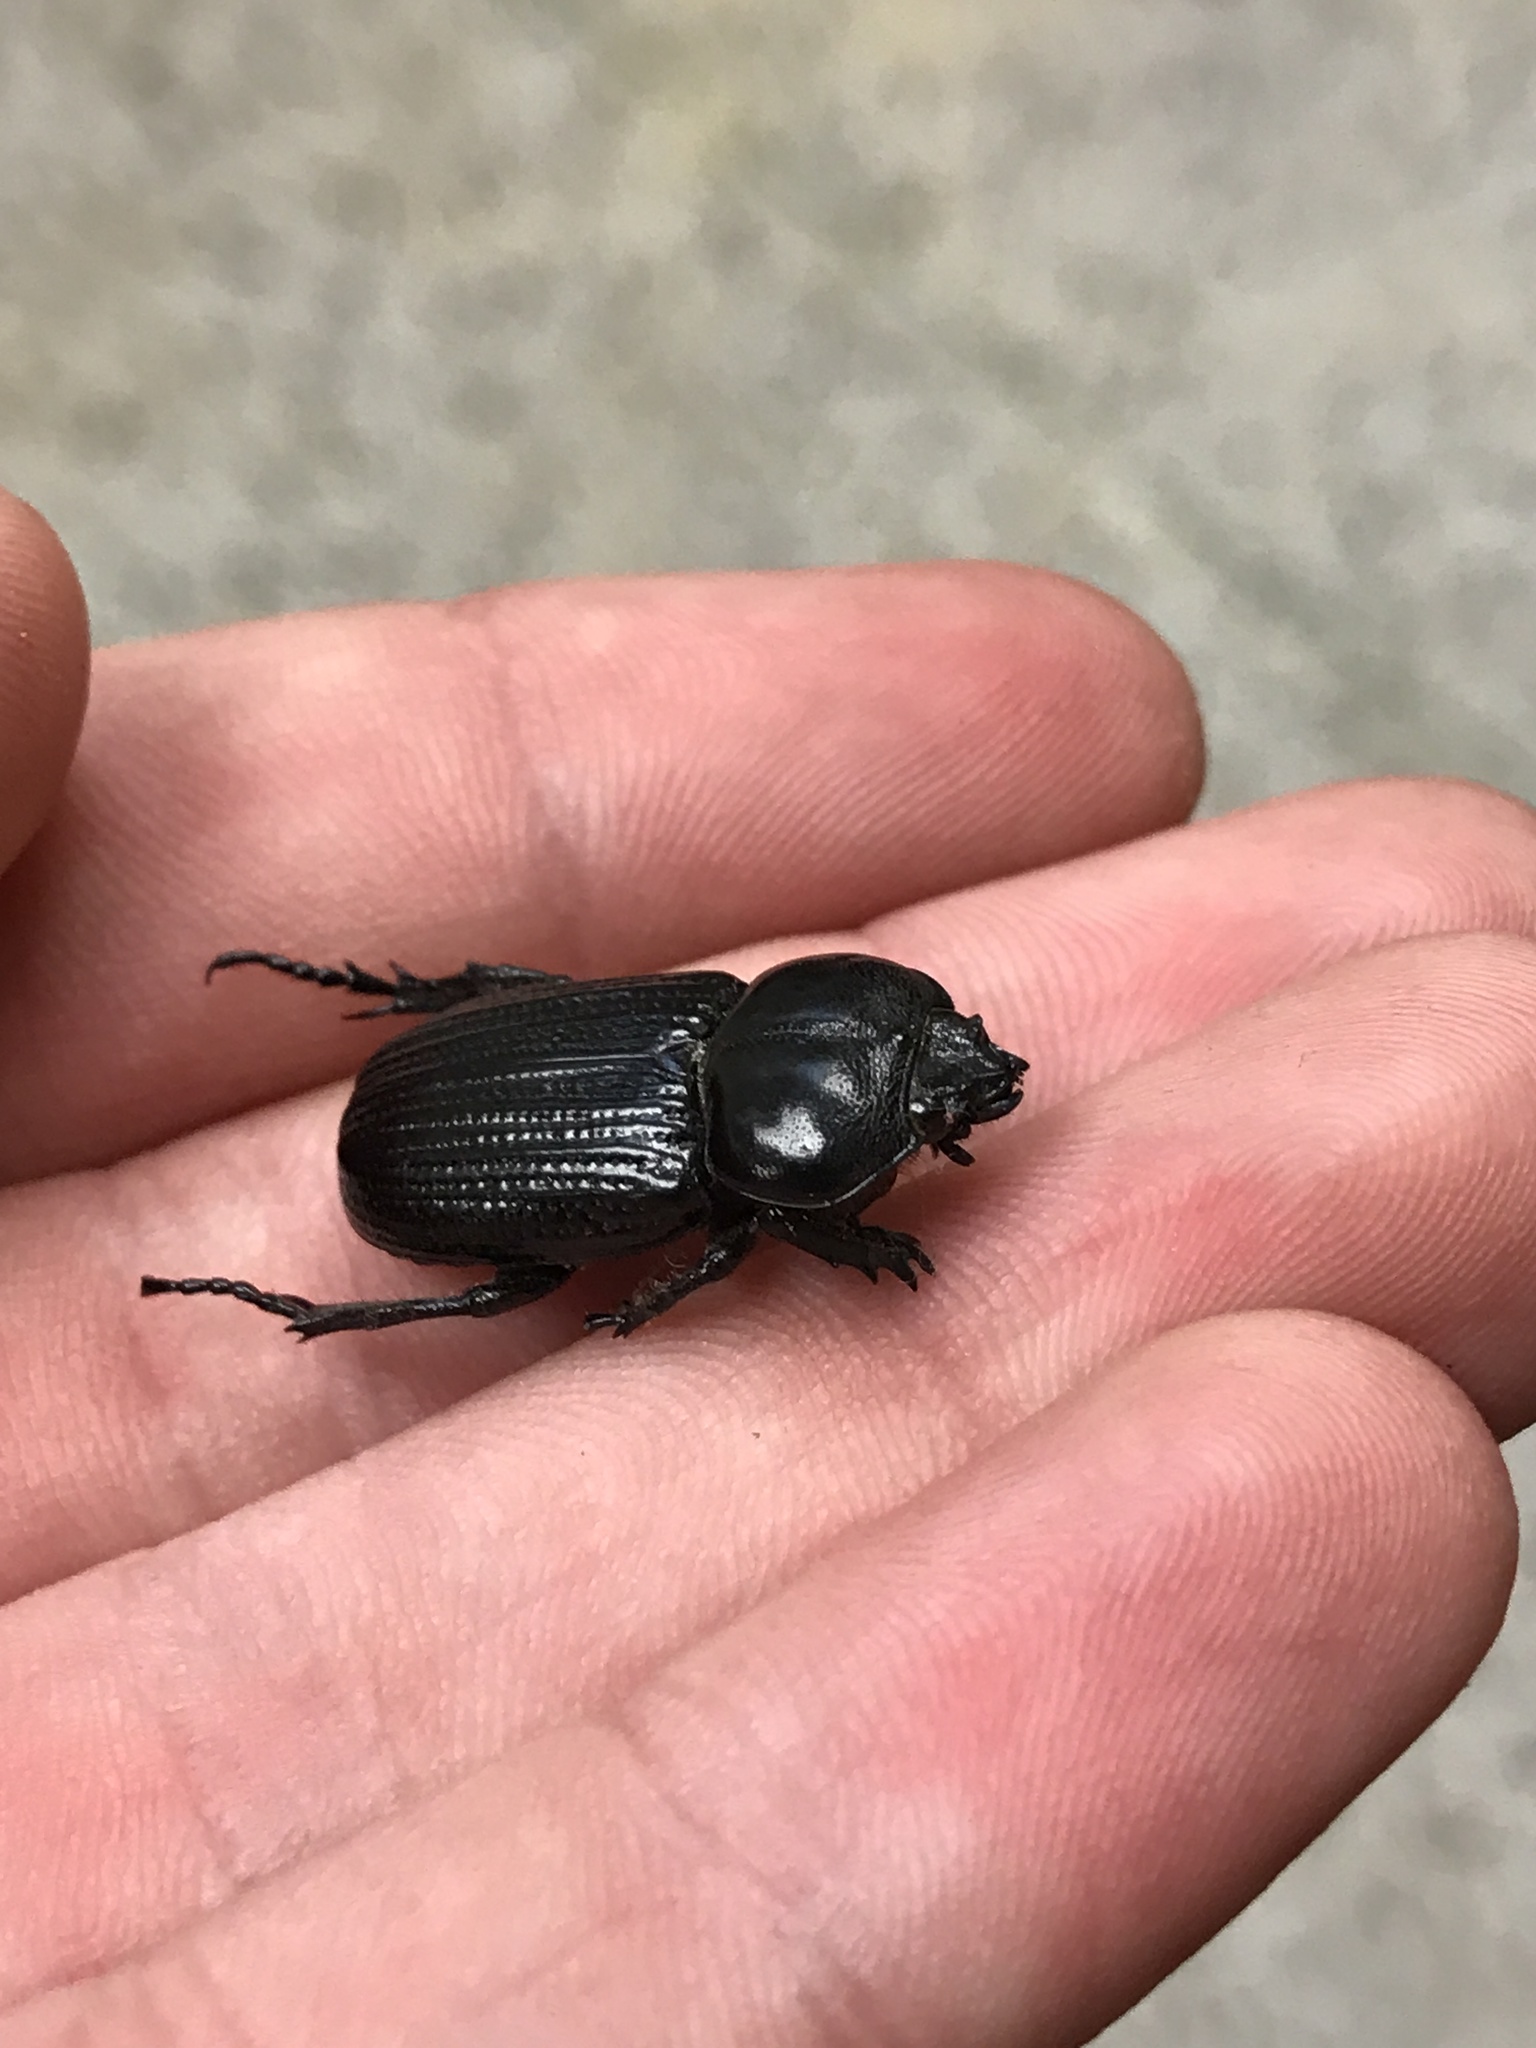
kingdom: Animalia
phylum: Arthropoda
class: Insecta
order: Coleoptera
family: Scarabaeidae
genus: Phileurus
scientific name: Phileurus valgus
